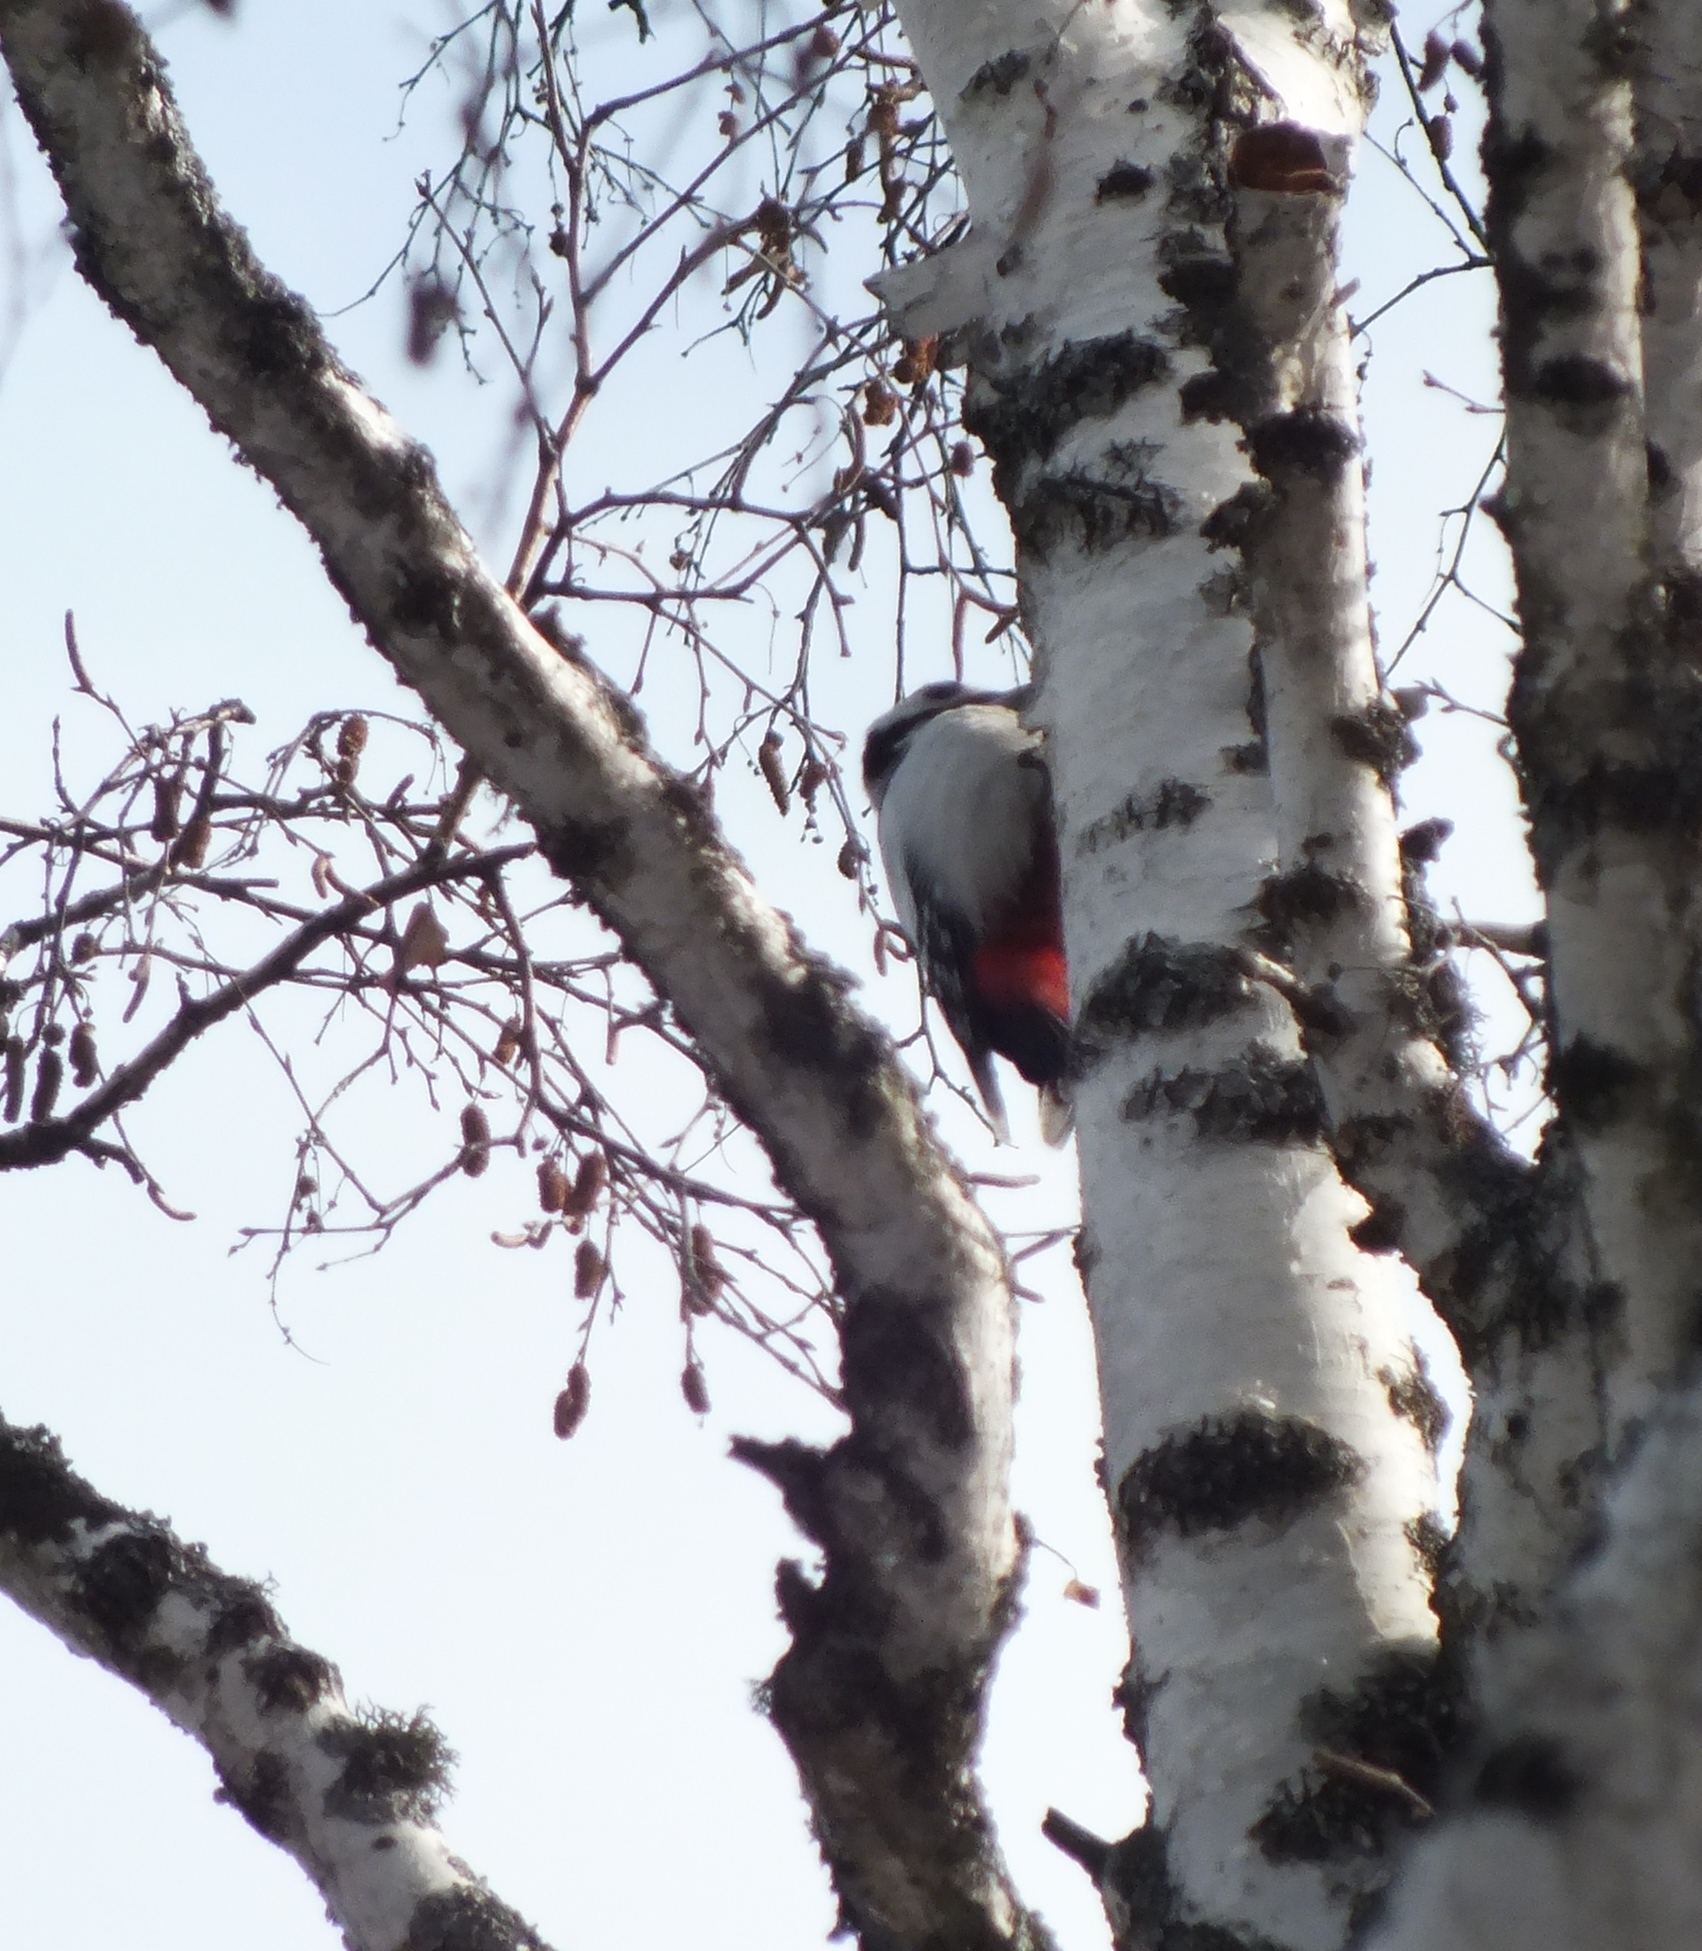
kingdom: Animalia
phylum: Chordata
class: Aves
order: Piciformes
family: Picidae
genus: Dendrocopos
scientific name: Dendrocopos major
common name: Great spotted woodpecker
